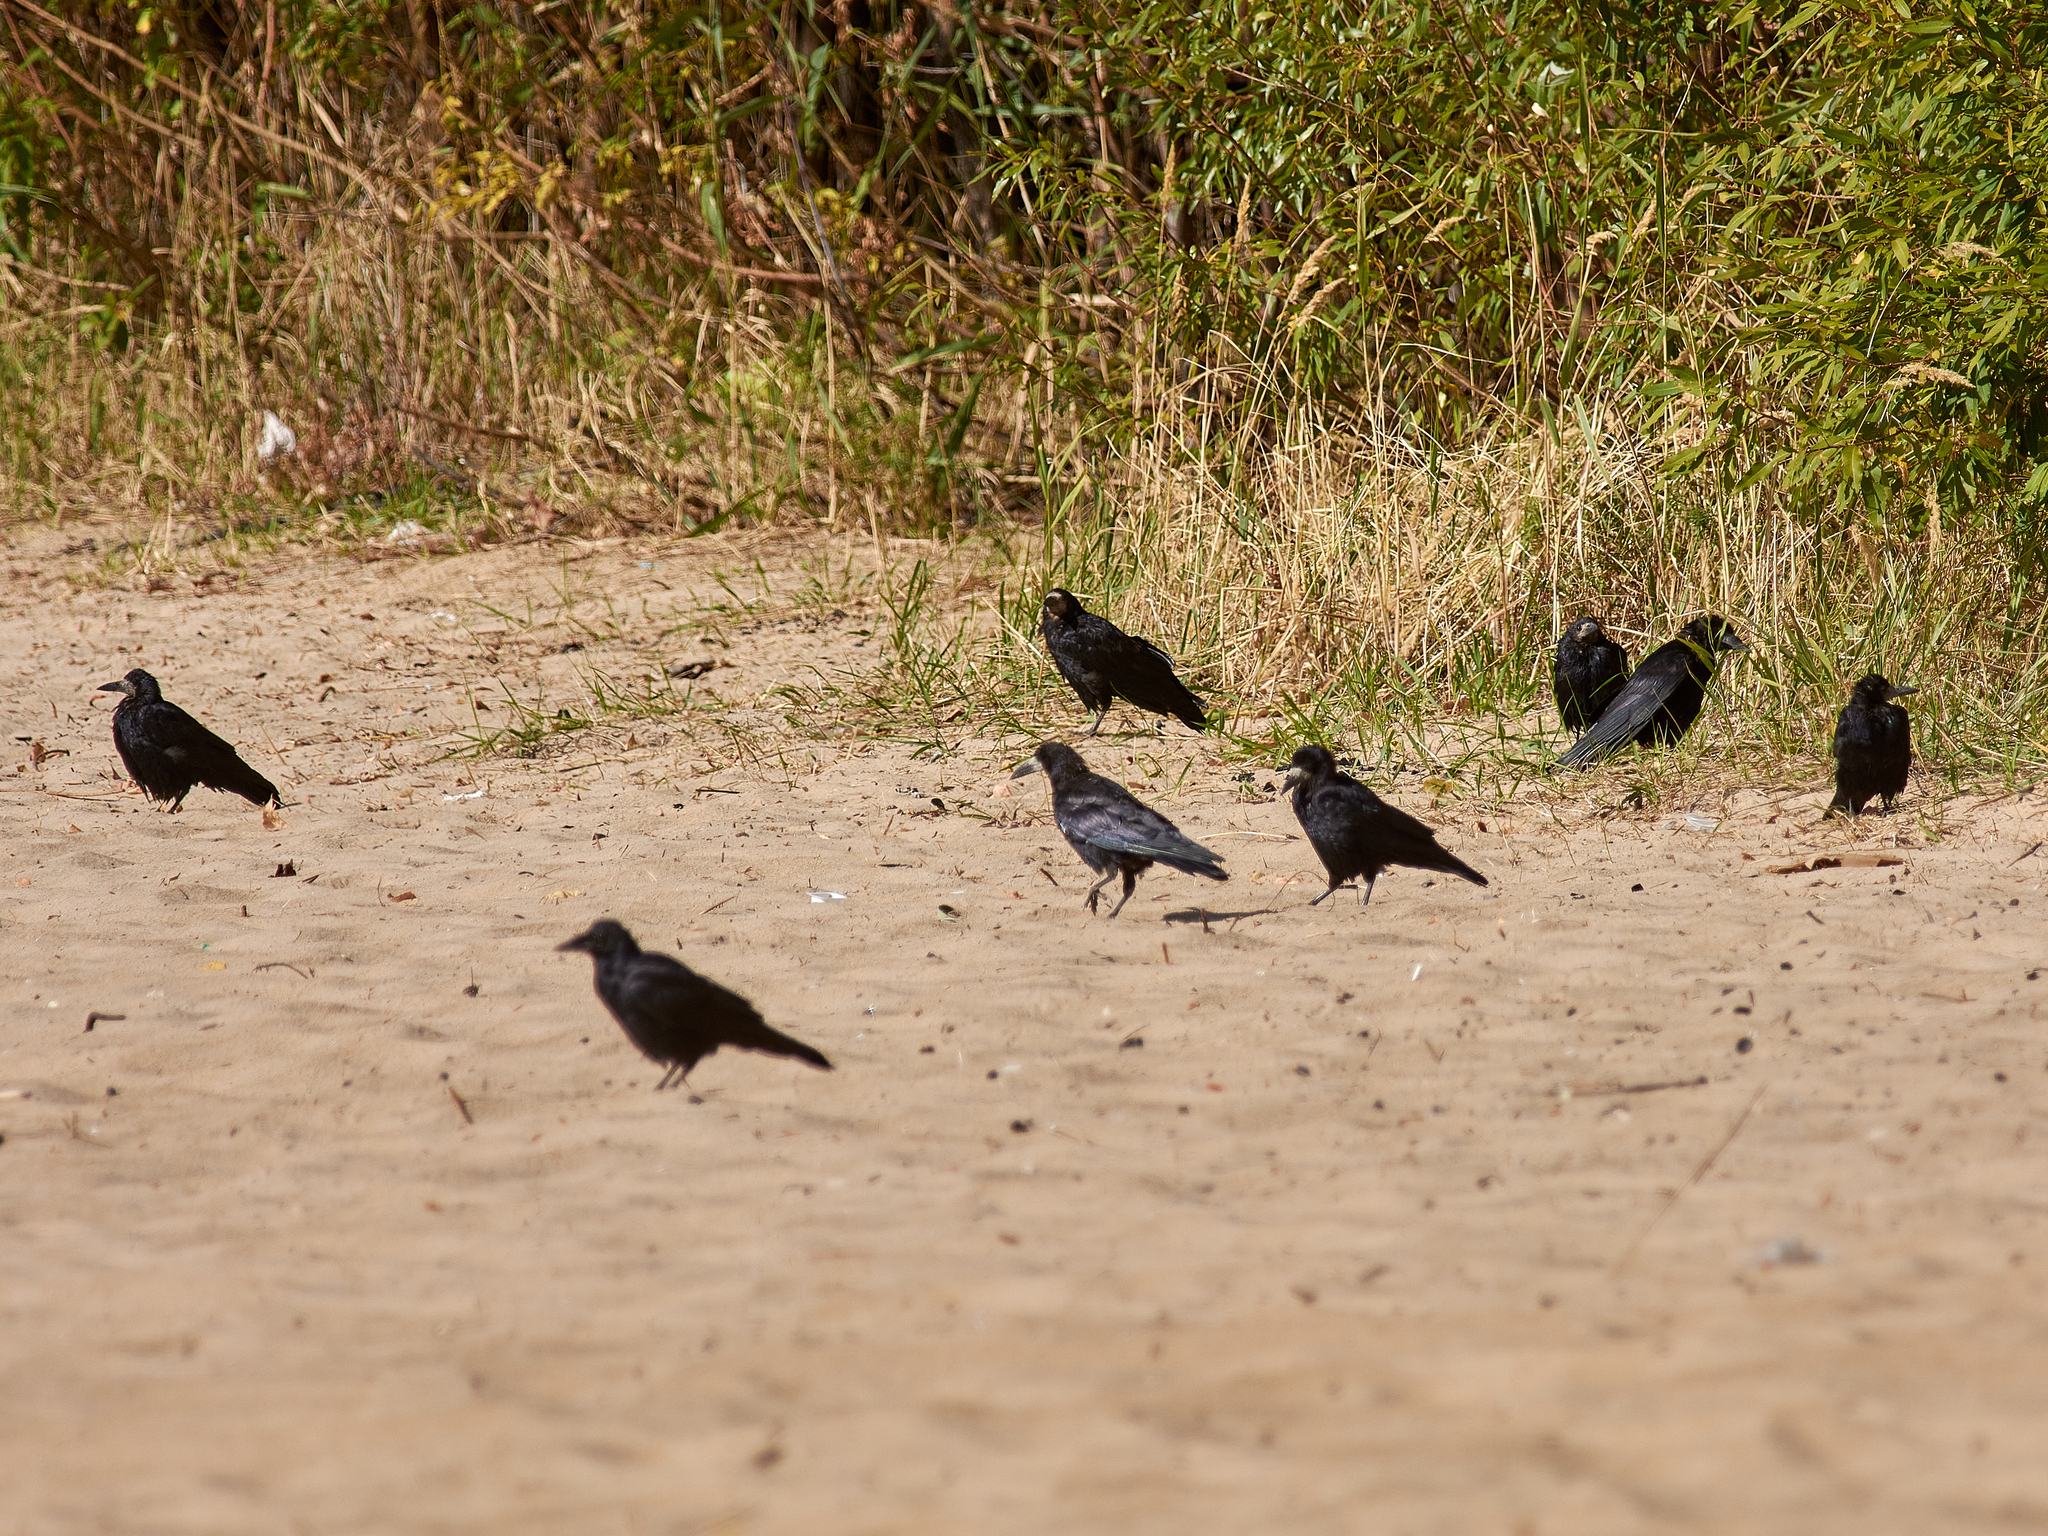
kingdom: Animalia
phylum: Chordata
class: Aves
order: Passeriformes
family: Corvidae
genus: Corvus
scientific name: Corvus frugilegus
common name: Rook
